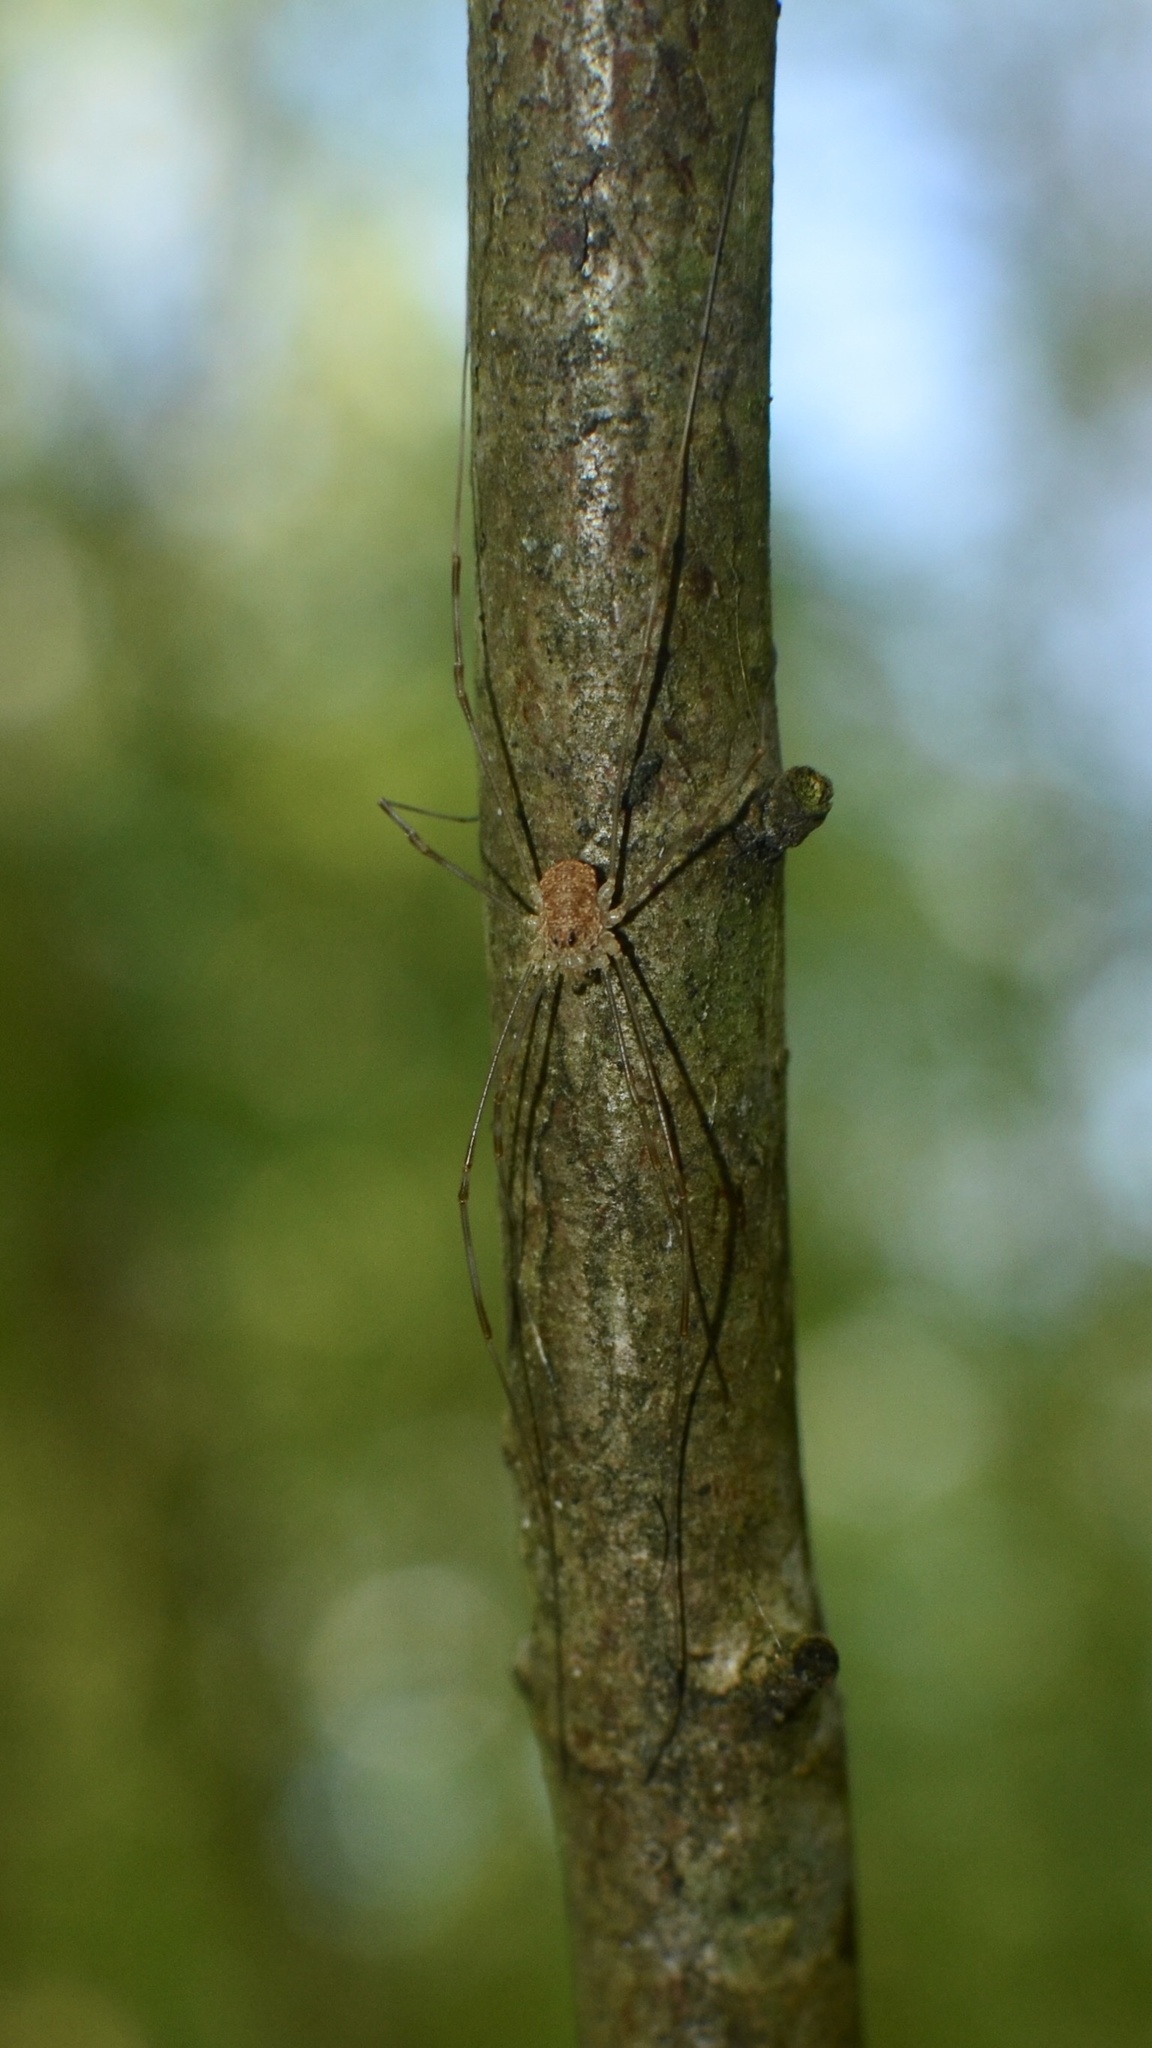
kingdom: Animalia
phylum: Arthropoda
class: Arachnida
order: Opiliones
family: Phalangiidae
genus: Rilaena
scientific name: Rilaena triangularis
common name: Spring harvestman
